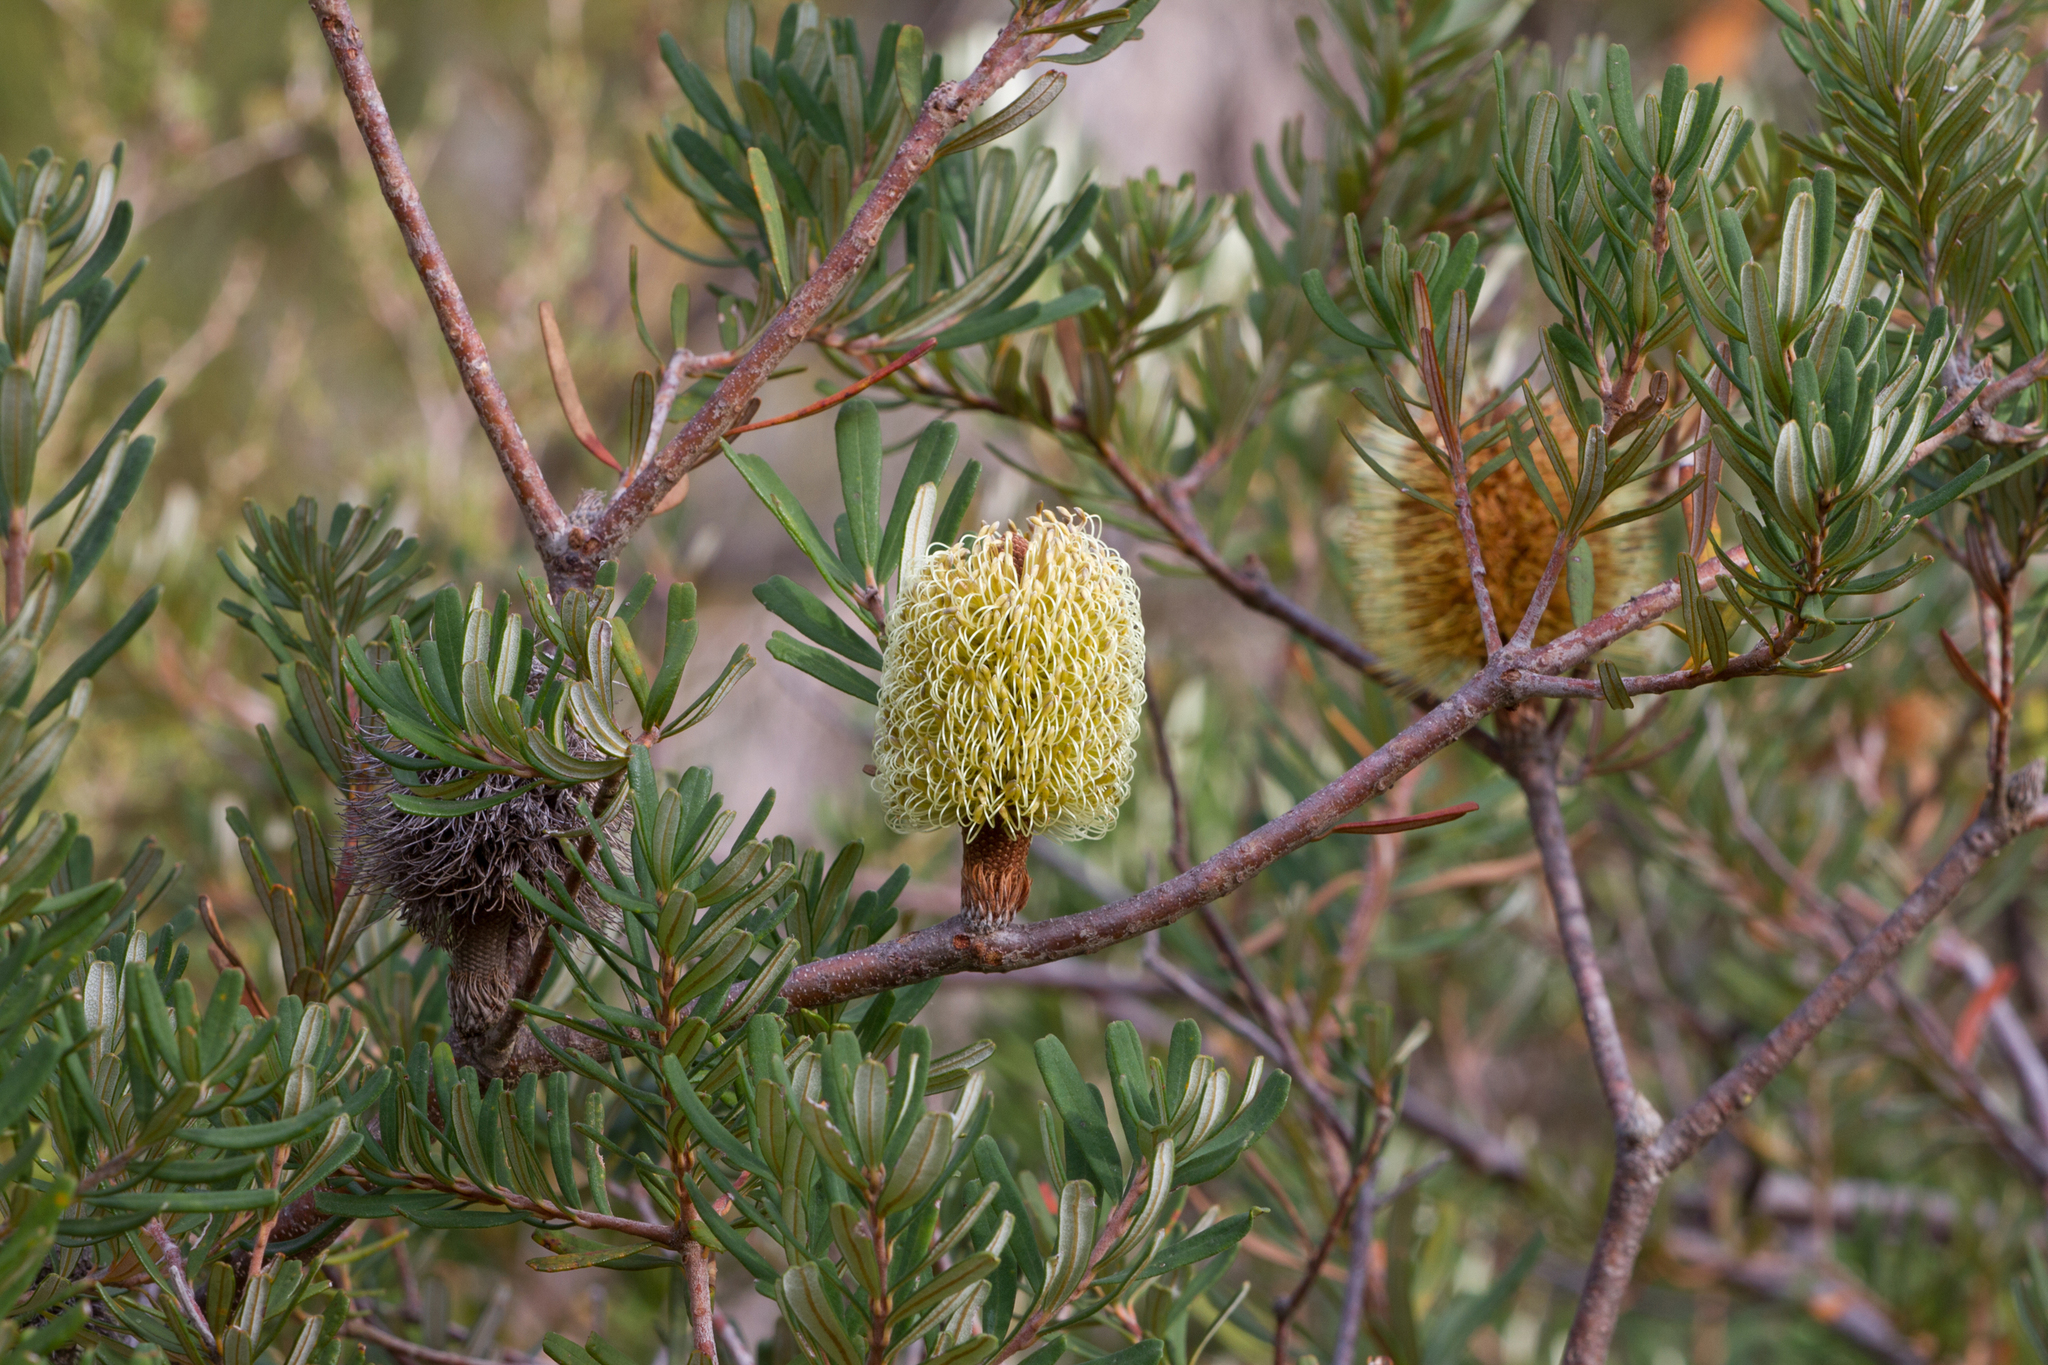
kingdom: Plantae
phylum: Tracheophyta
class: Magnoliopsida
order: Proteales
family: Proteaceae
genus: Banksia
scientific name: Banksia marginata
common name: Silver banksia
